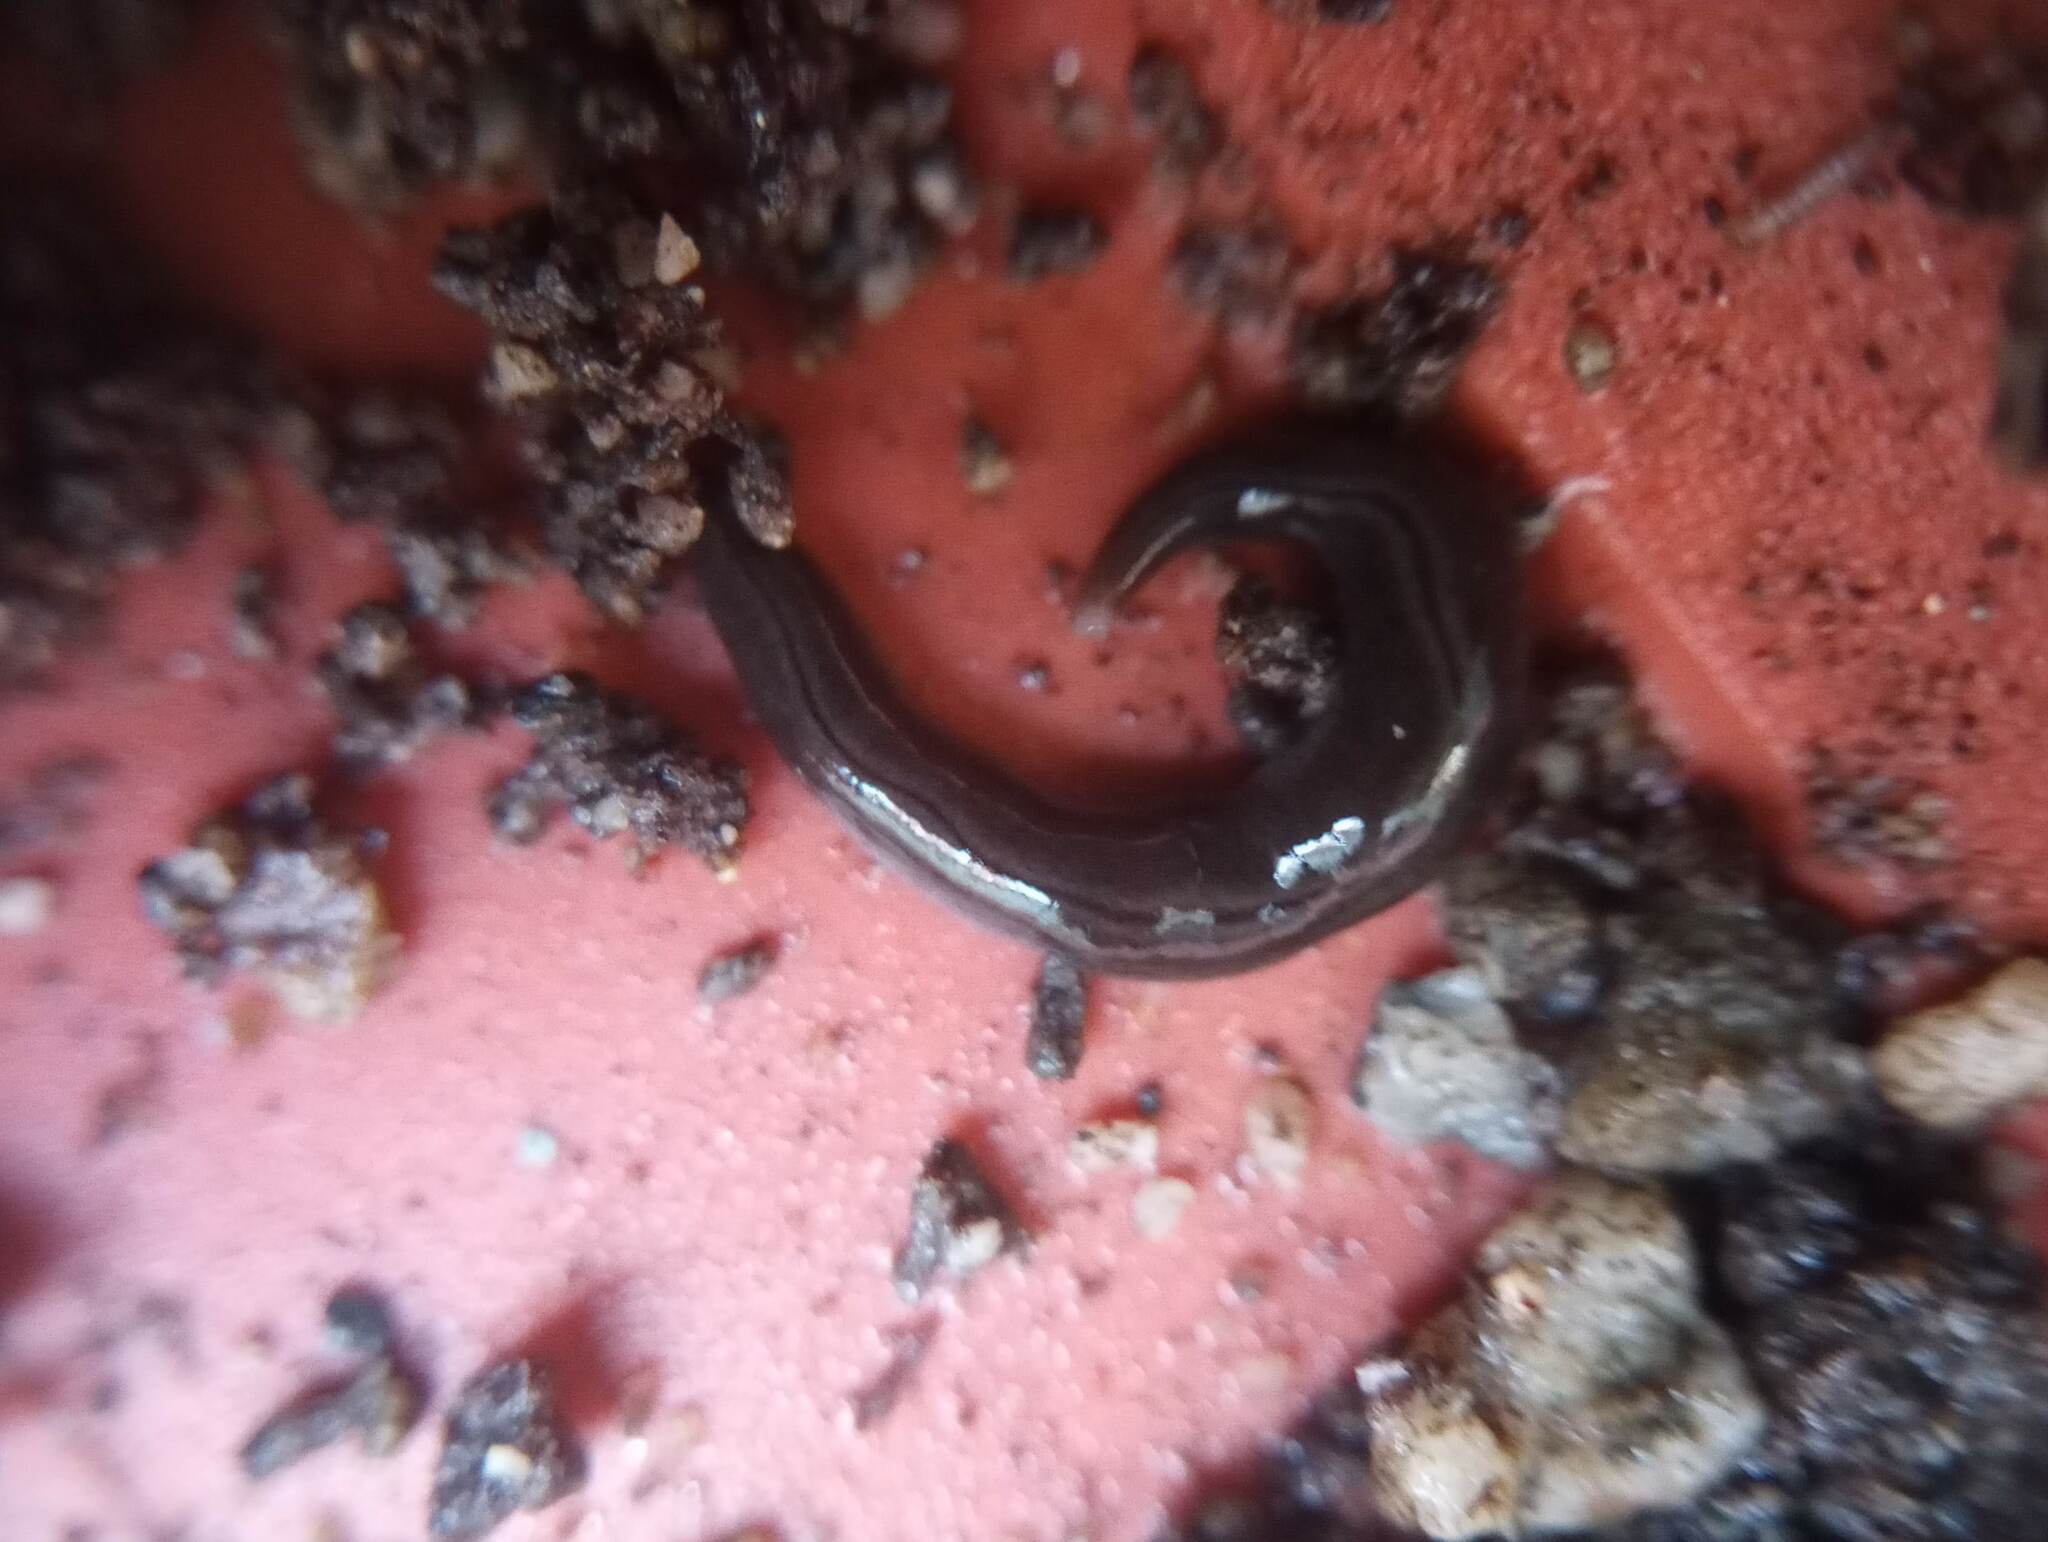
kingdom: Animalia
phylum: Platyhelminthes
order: Tricladida
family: Geoplanidae
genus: Parakontikia
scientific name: Parakontikia ventrolineata
